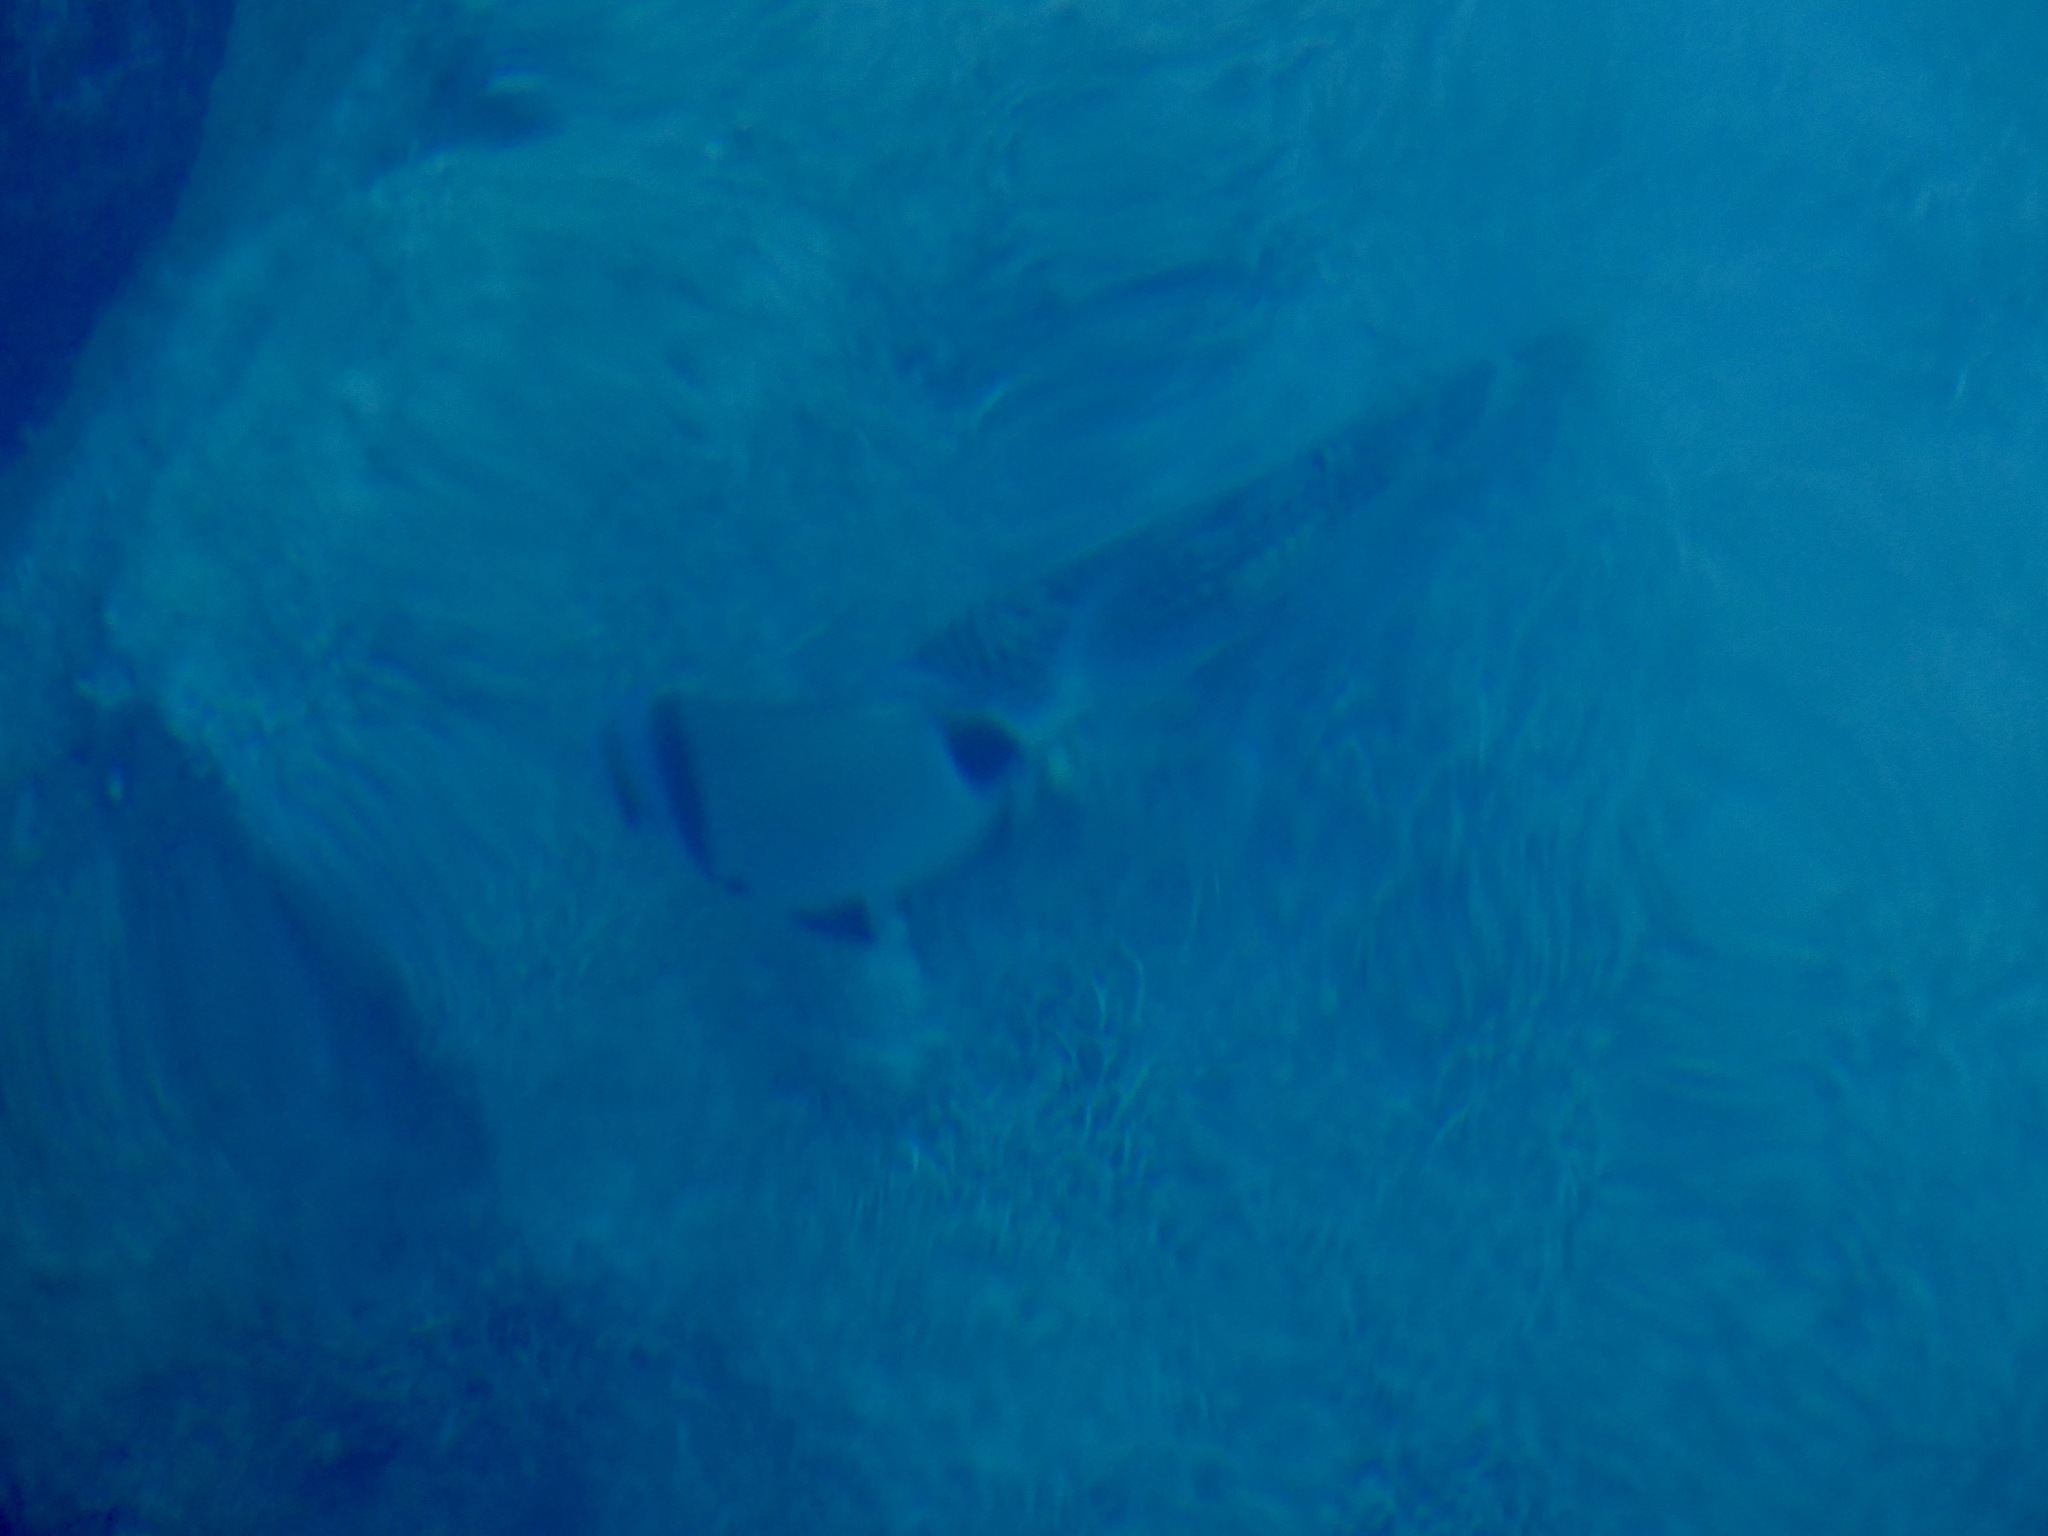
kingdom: Animalia
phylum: Chordata
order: Perciformes
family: Sparidae
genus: Diplodus
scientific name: Diplodus vulgaris
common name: Common two-banded seabream
